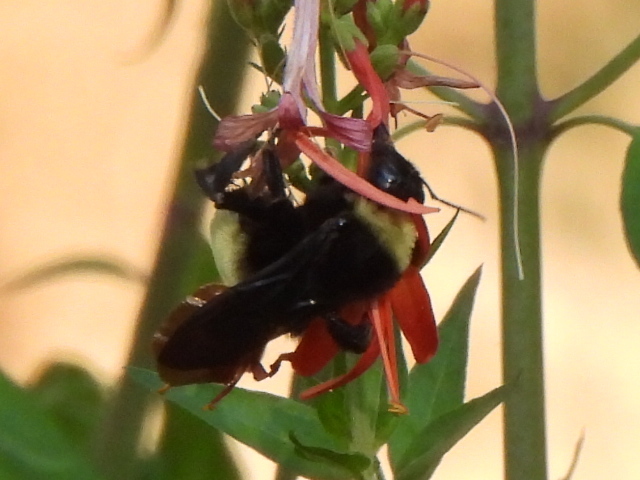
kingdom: Animalia
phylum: Arthropoda
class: Insecta
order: Hymenoptera
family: Apidae
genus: Bombus
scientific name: Bombus pensylvanicus
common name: Bumble bee
